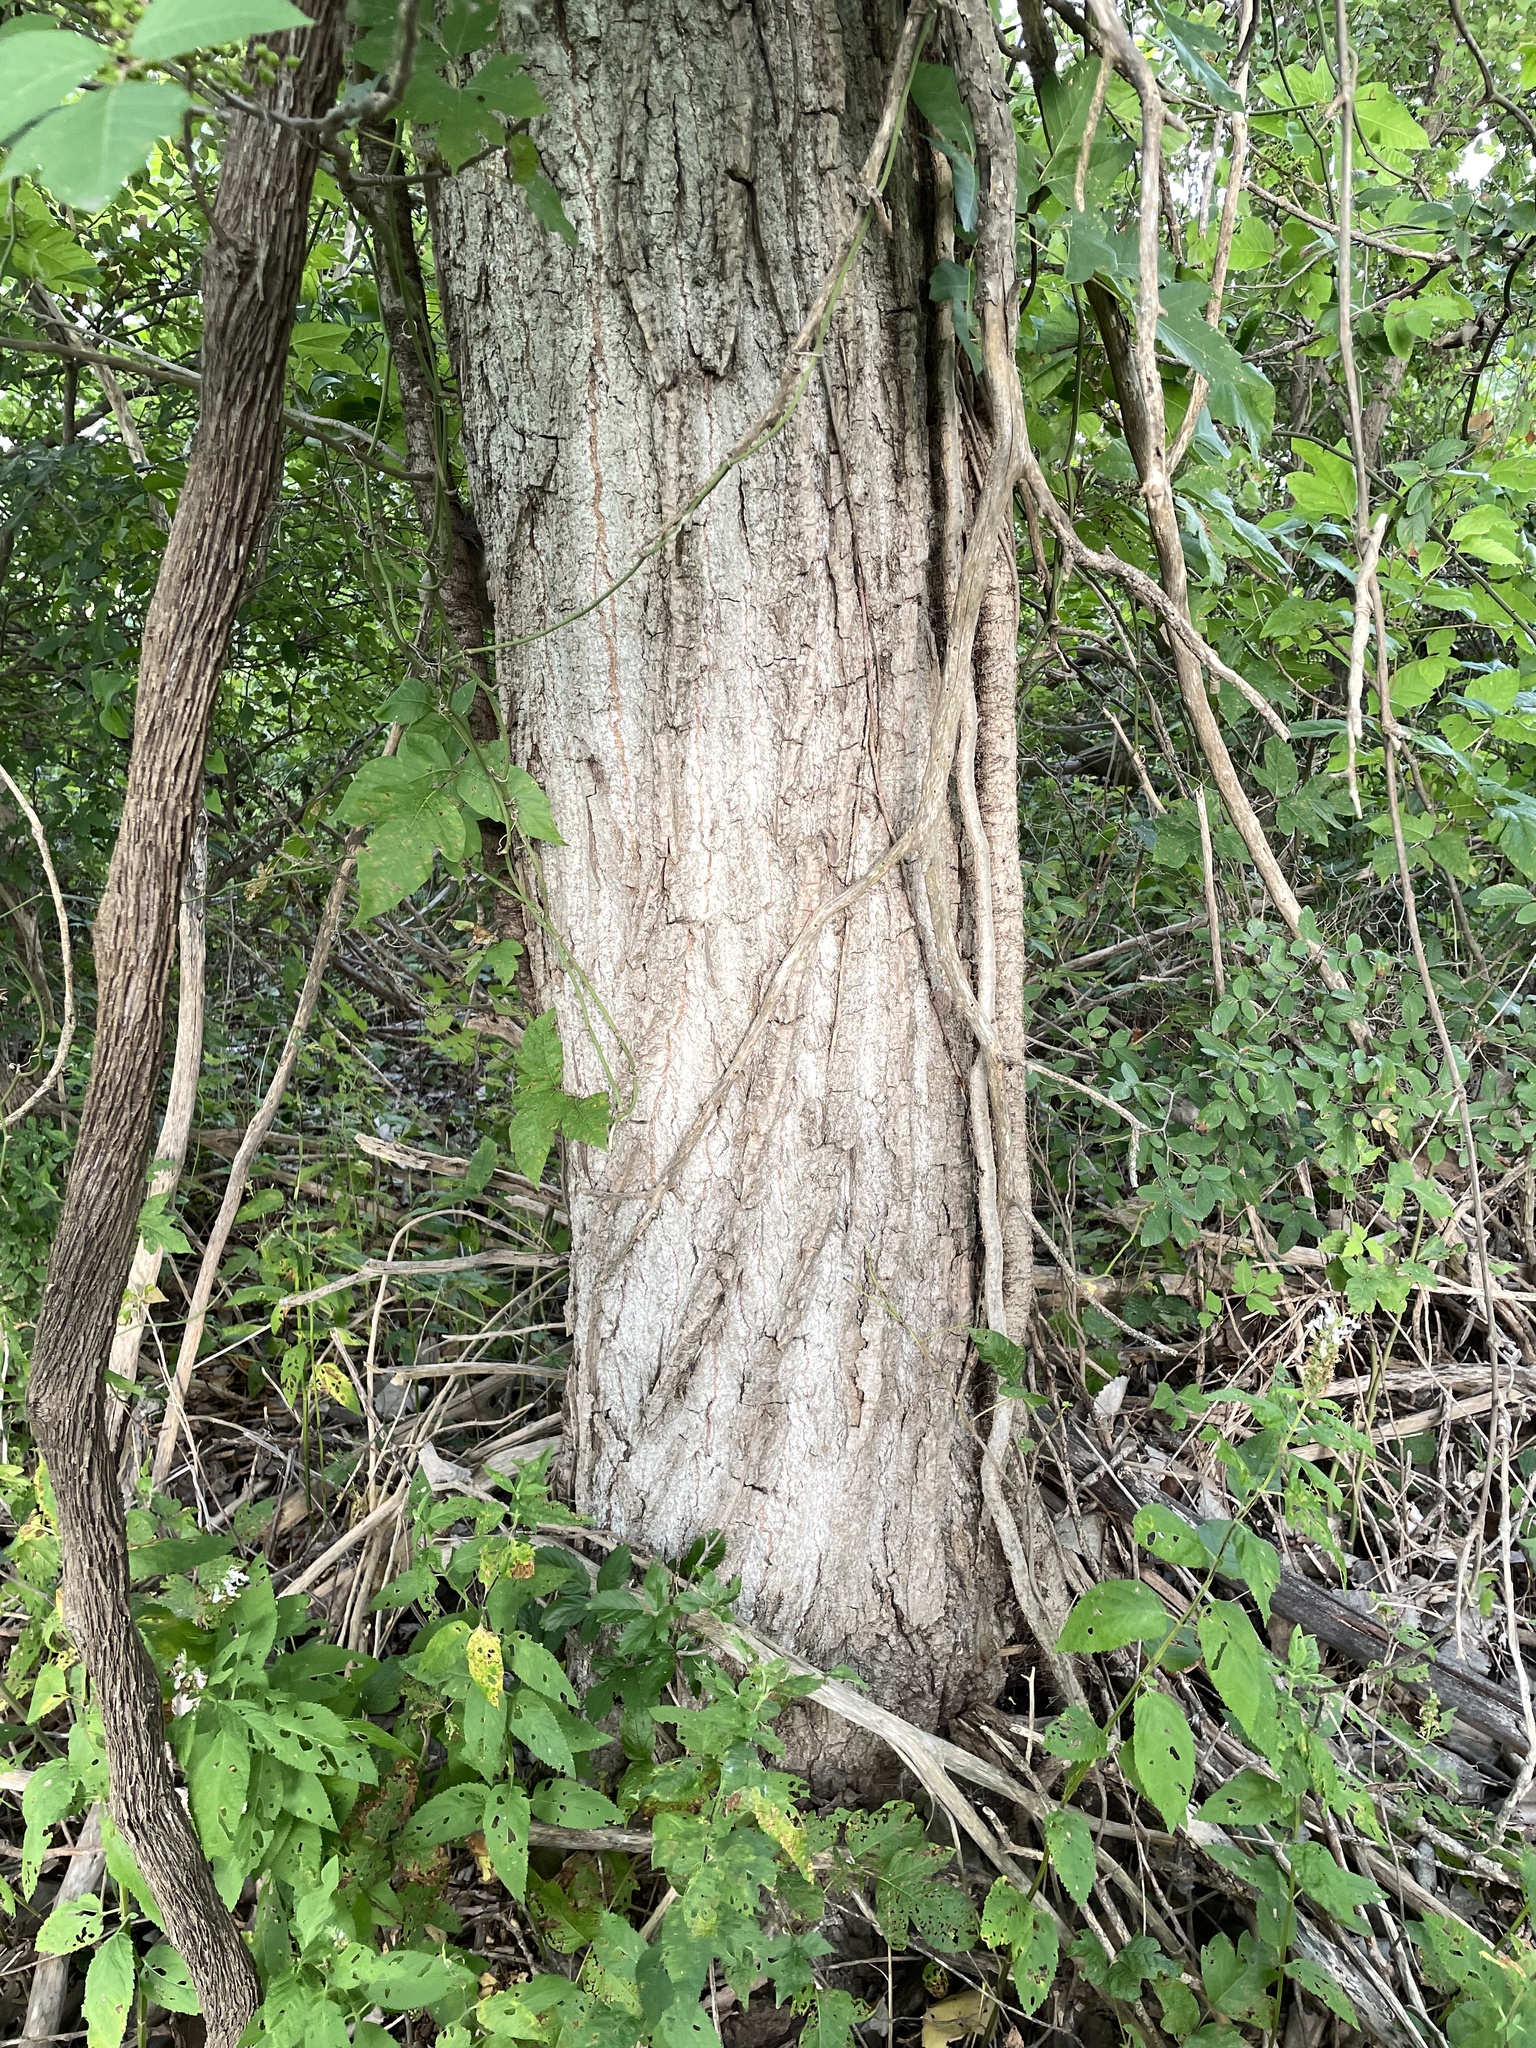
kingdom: Plantae
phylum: Tracheophyta
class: Magnoliopsida
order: Malpighiales
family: Salicaceae
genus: Populus
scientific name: Populus deltoides
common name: Eastern cottonwood
